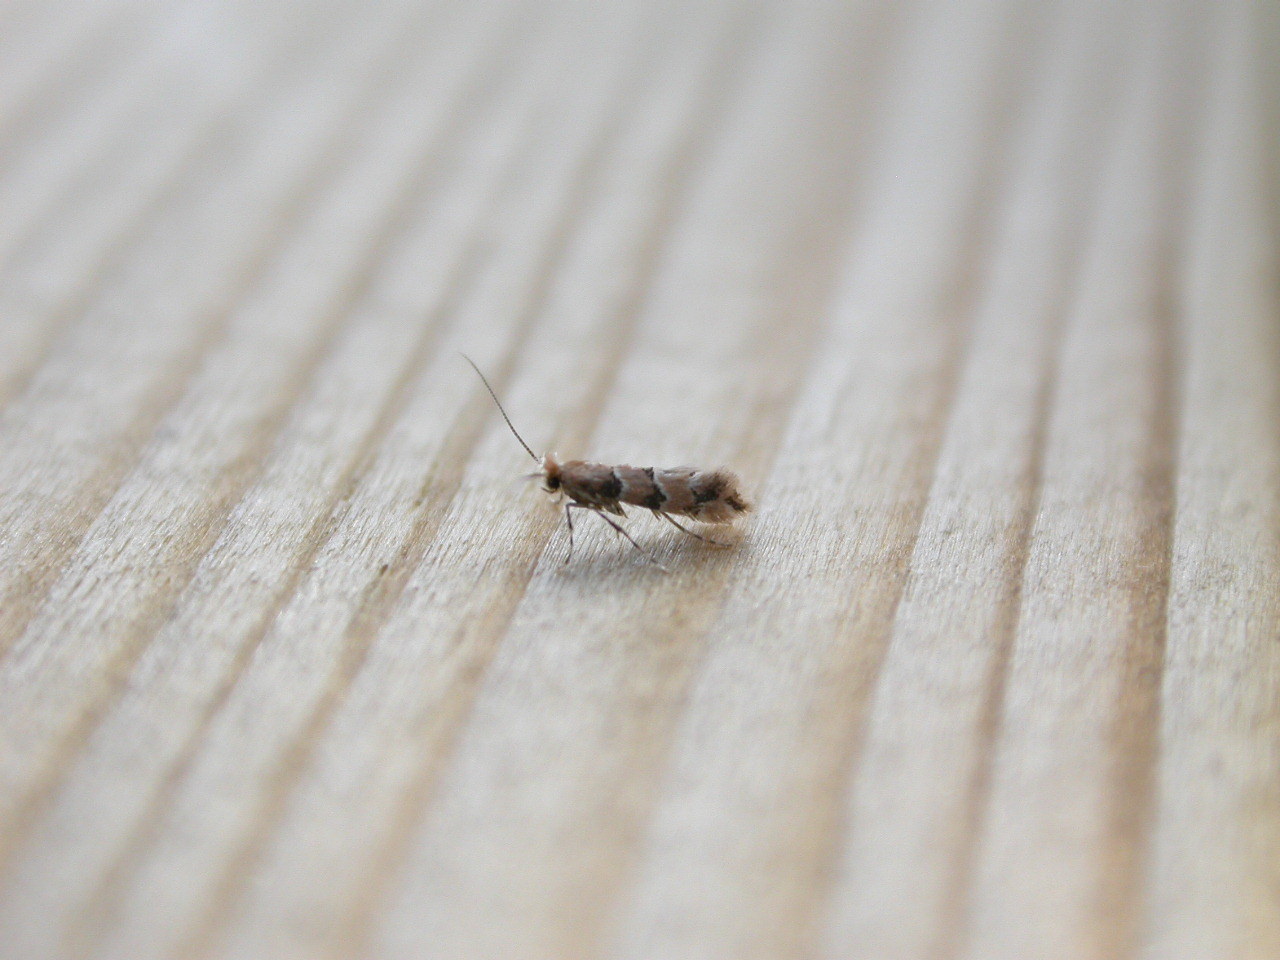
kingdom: Animalia
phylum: Arthropoda
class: Insecta
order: Lepidoptera
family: Gracillariidae
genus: Phyllonorycter
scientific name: Phyllonorycter trifasciella
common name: Honeysuckle midget
